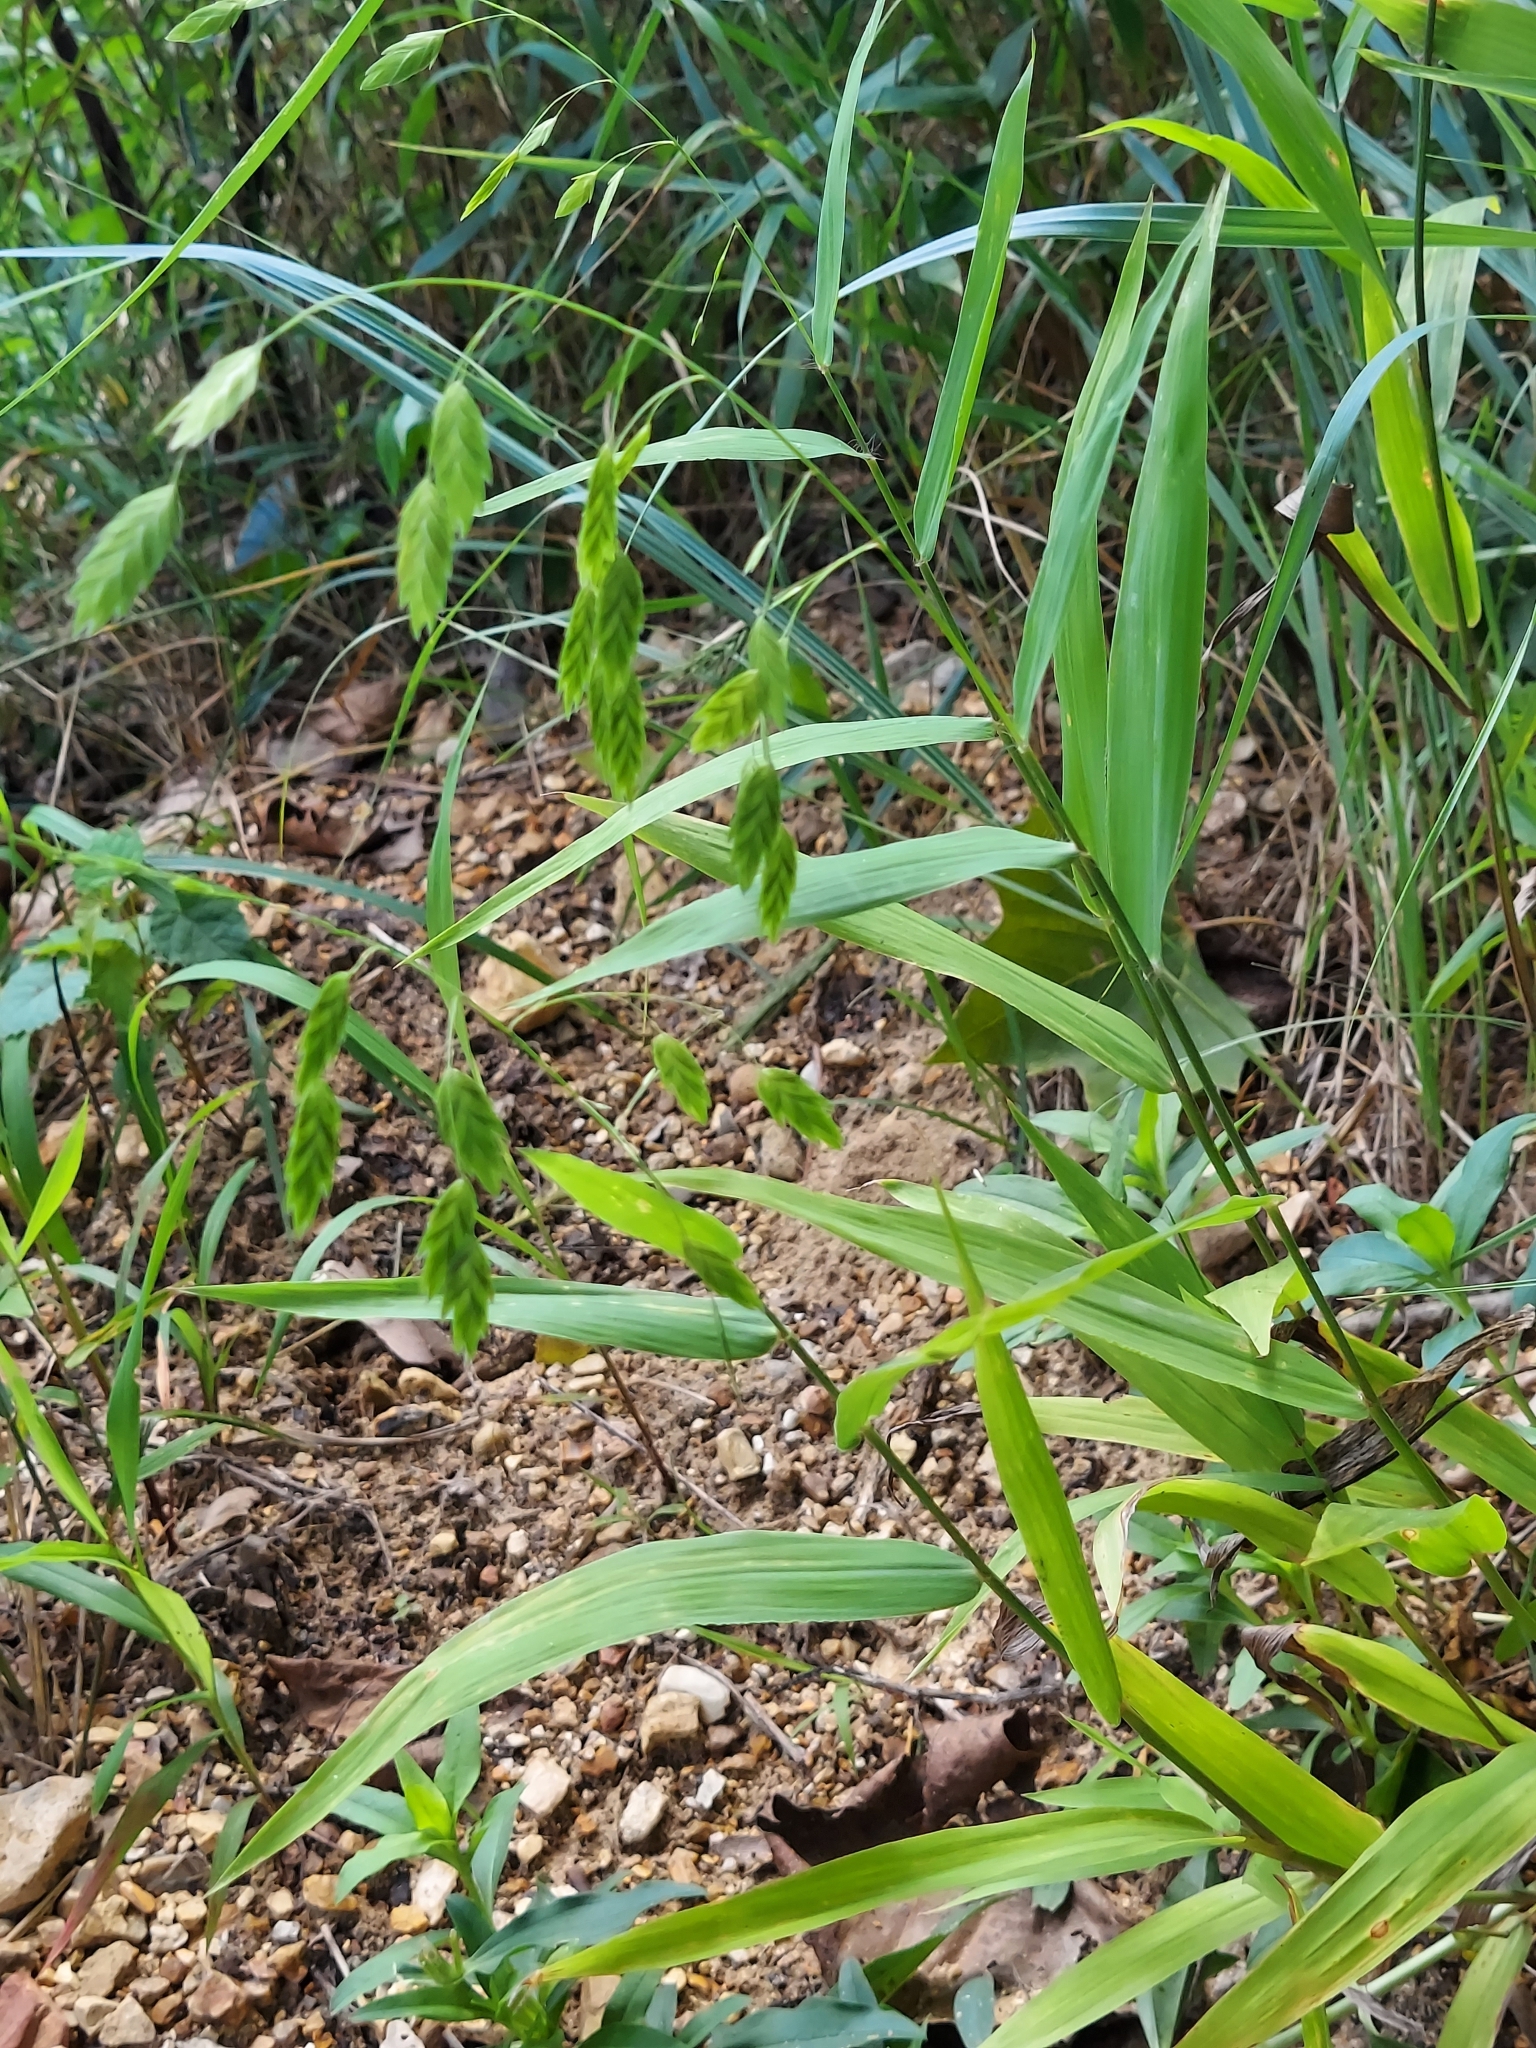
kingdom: Plantae
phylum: Tracheophyta
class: Liliopsida
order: Poales
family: Poaceae
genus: Chasmanthium
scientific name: Chasmanthium latifolium
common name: Broad-leaved chasmanthium
